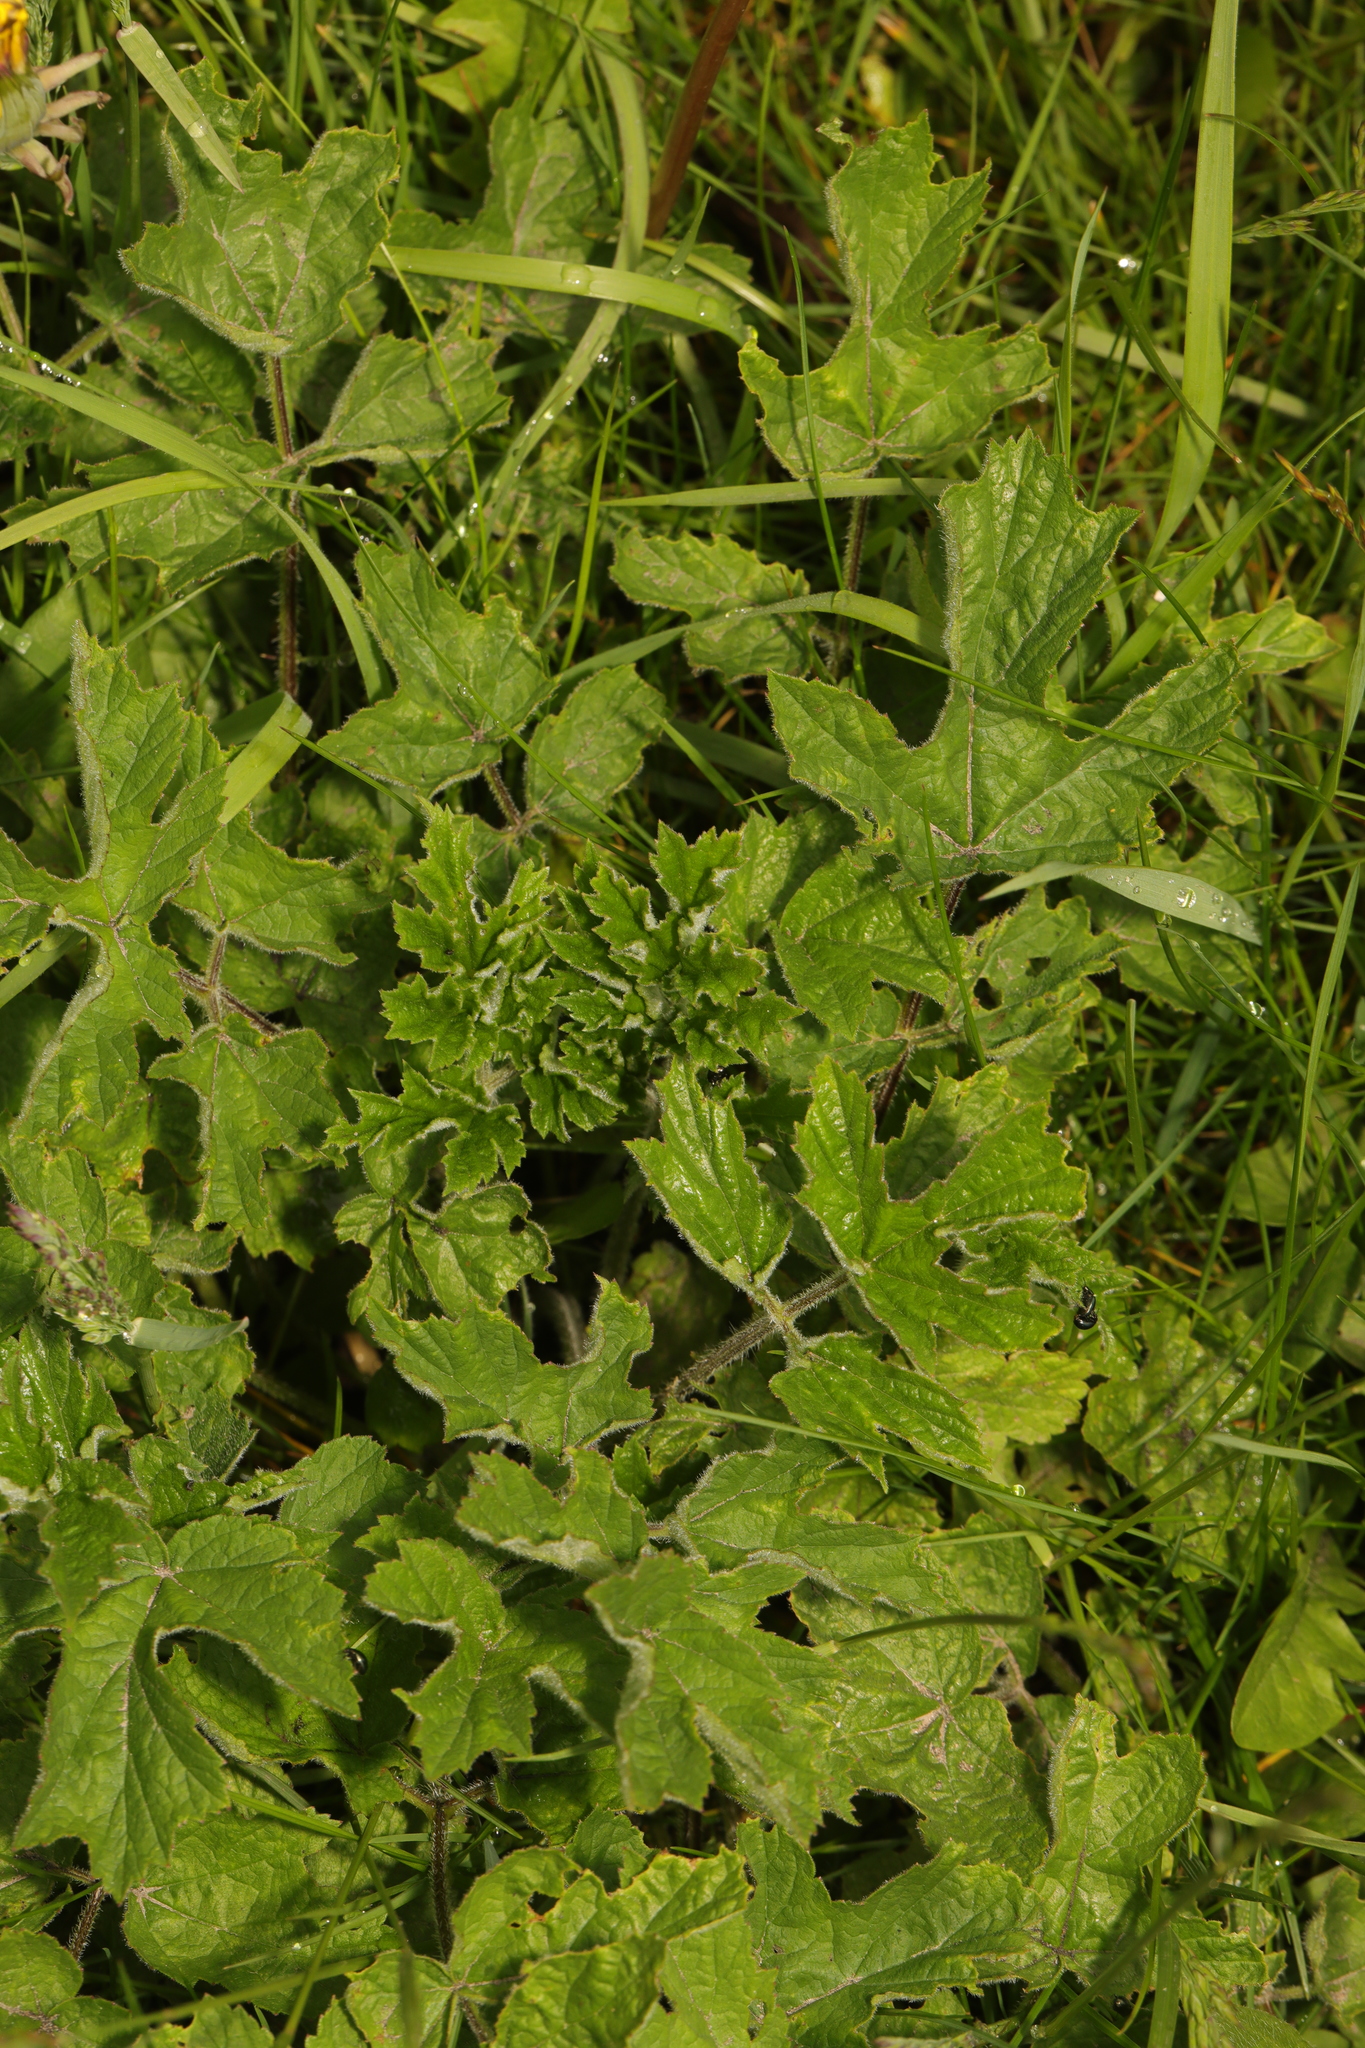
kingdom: Plantae
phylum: Tracheophyta
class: Magnoliopsida
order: Apiales
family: Apiaceae
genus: Heracleum
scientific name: Heracleum sphondylium
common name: Hogweed
